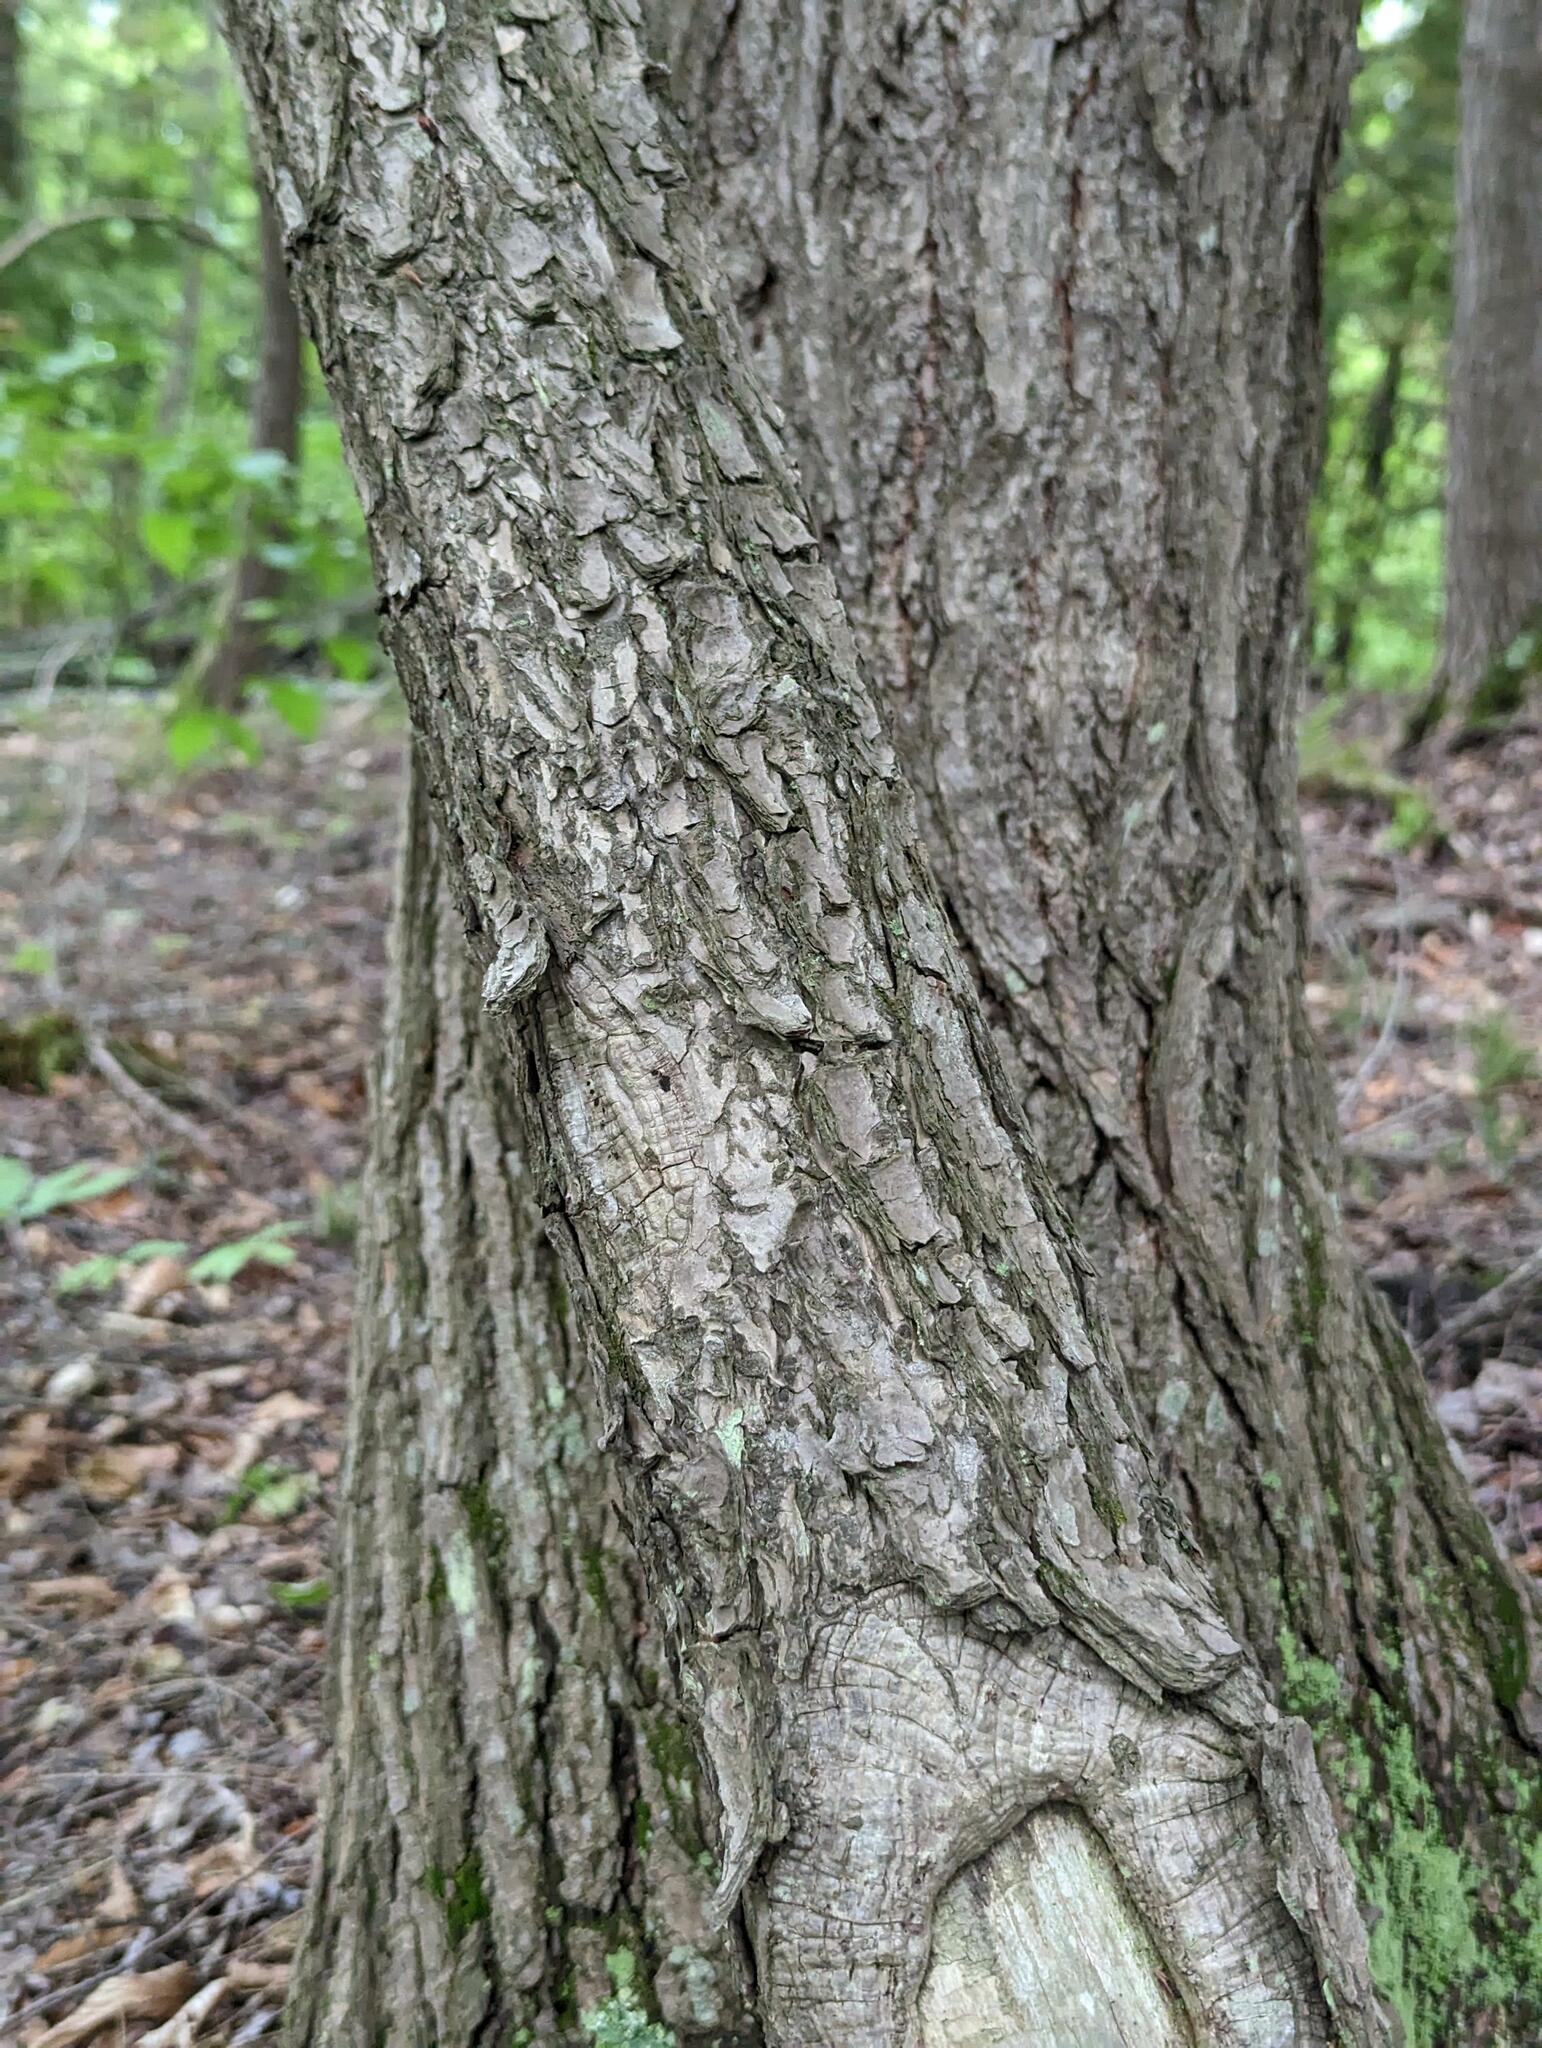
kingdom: Plantae
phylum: Tracheophyta
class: Pinopsida
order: Pinales
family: Pinaceae
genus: Tsuga
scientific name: Tsuga canadensis
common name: Eastern hemlock
